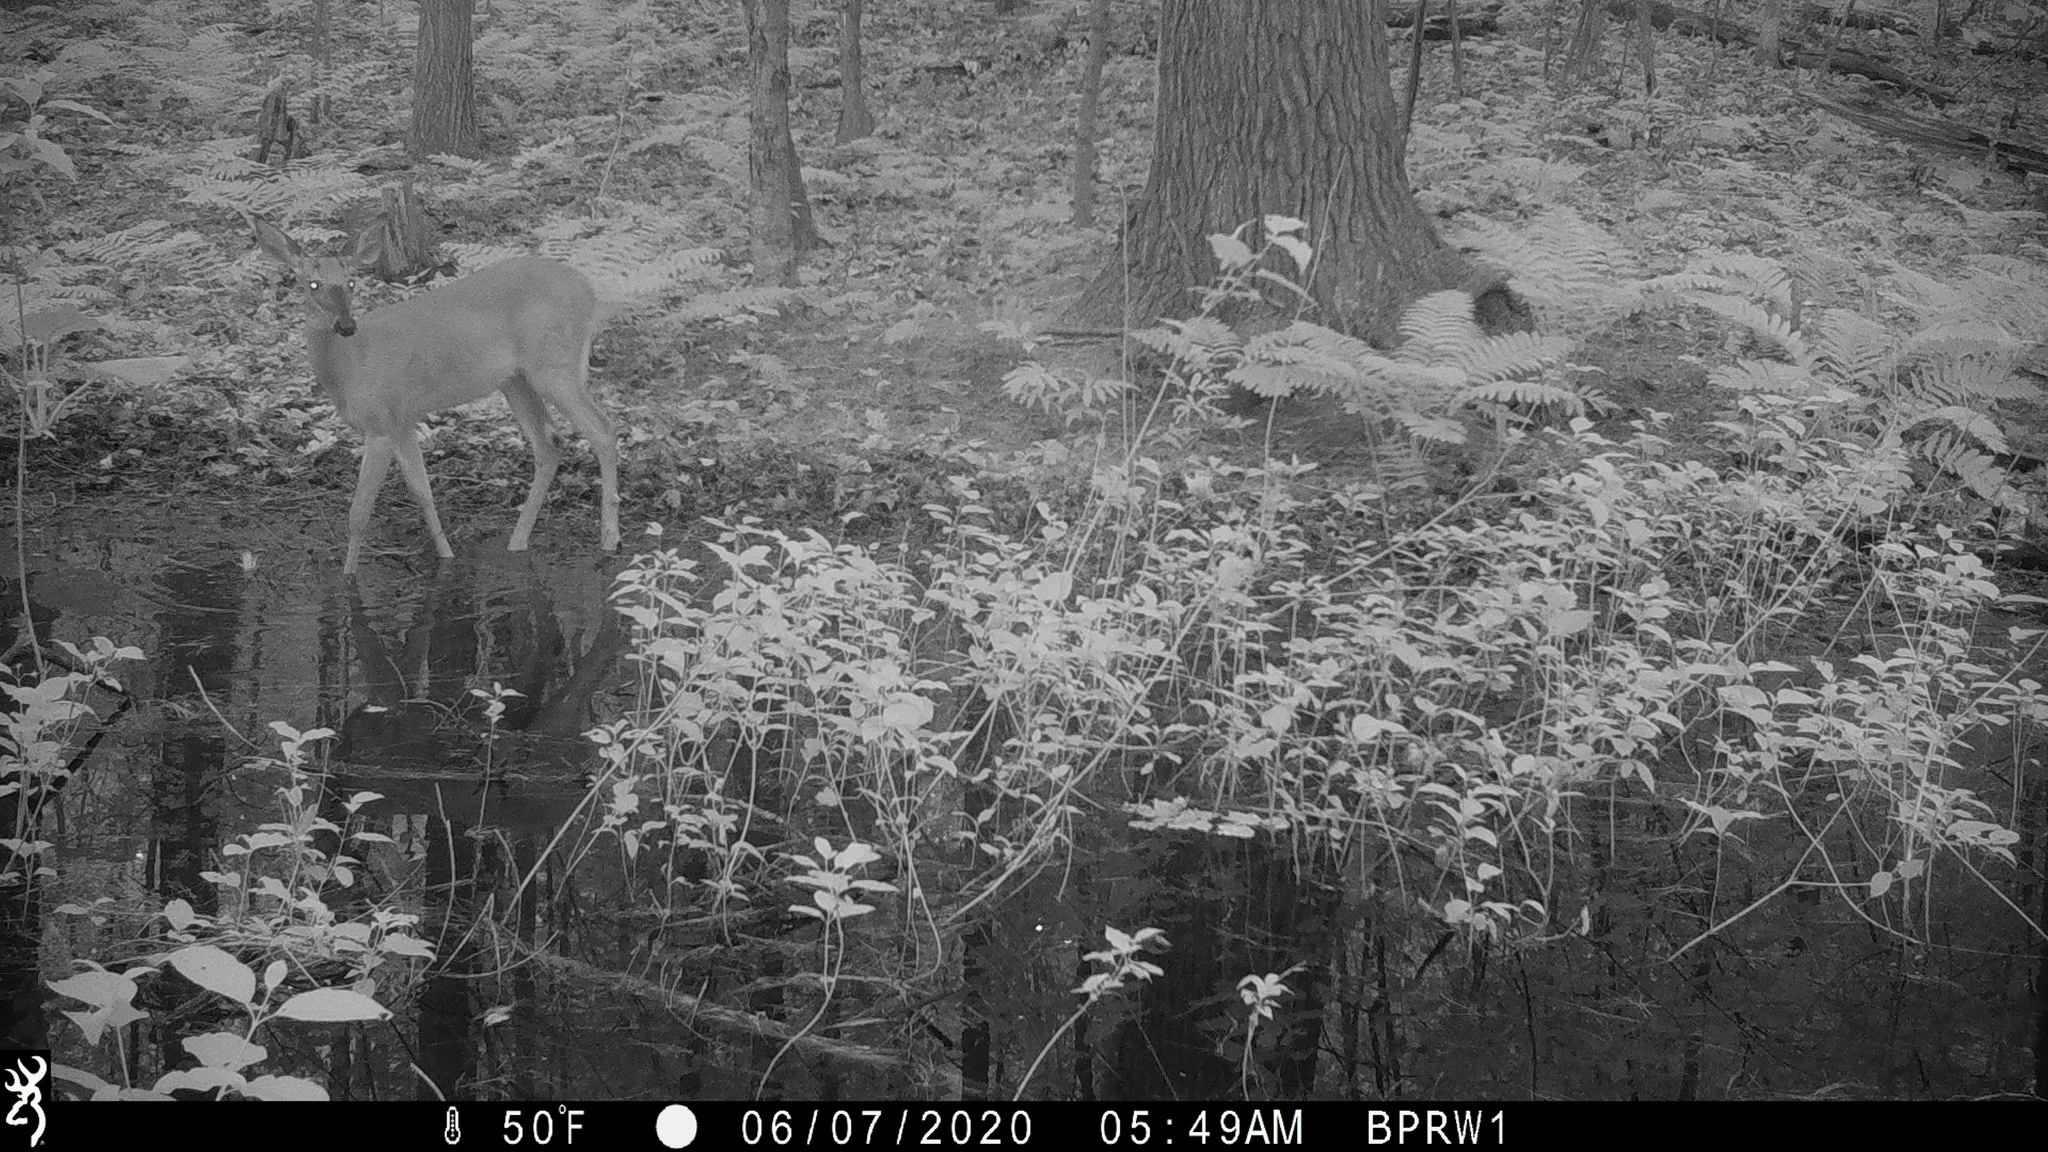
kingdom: Animalia
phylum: Chordata
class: Mammalia
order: Artiodactyla
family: Cervidae
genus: Odocoileus
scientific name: Odocoileus virginianus
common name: White-tailed deer
